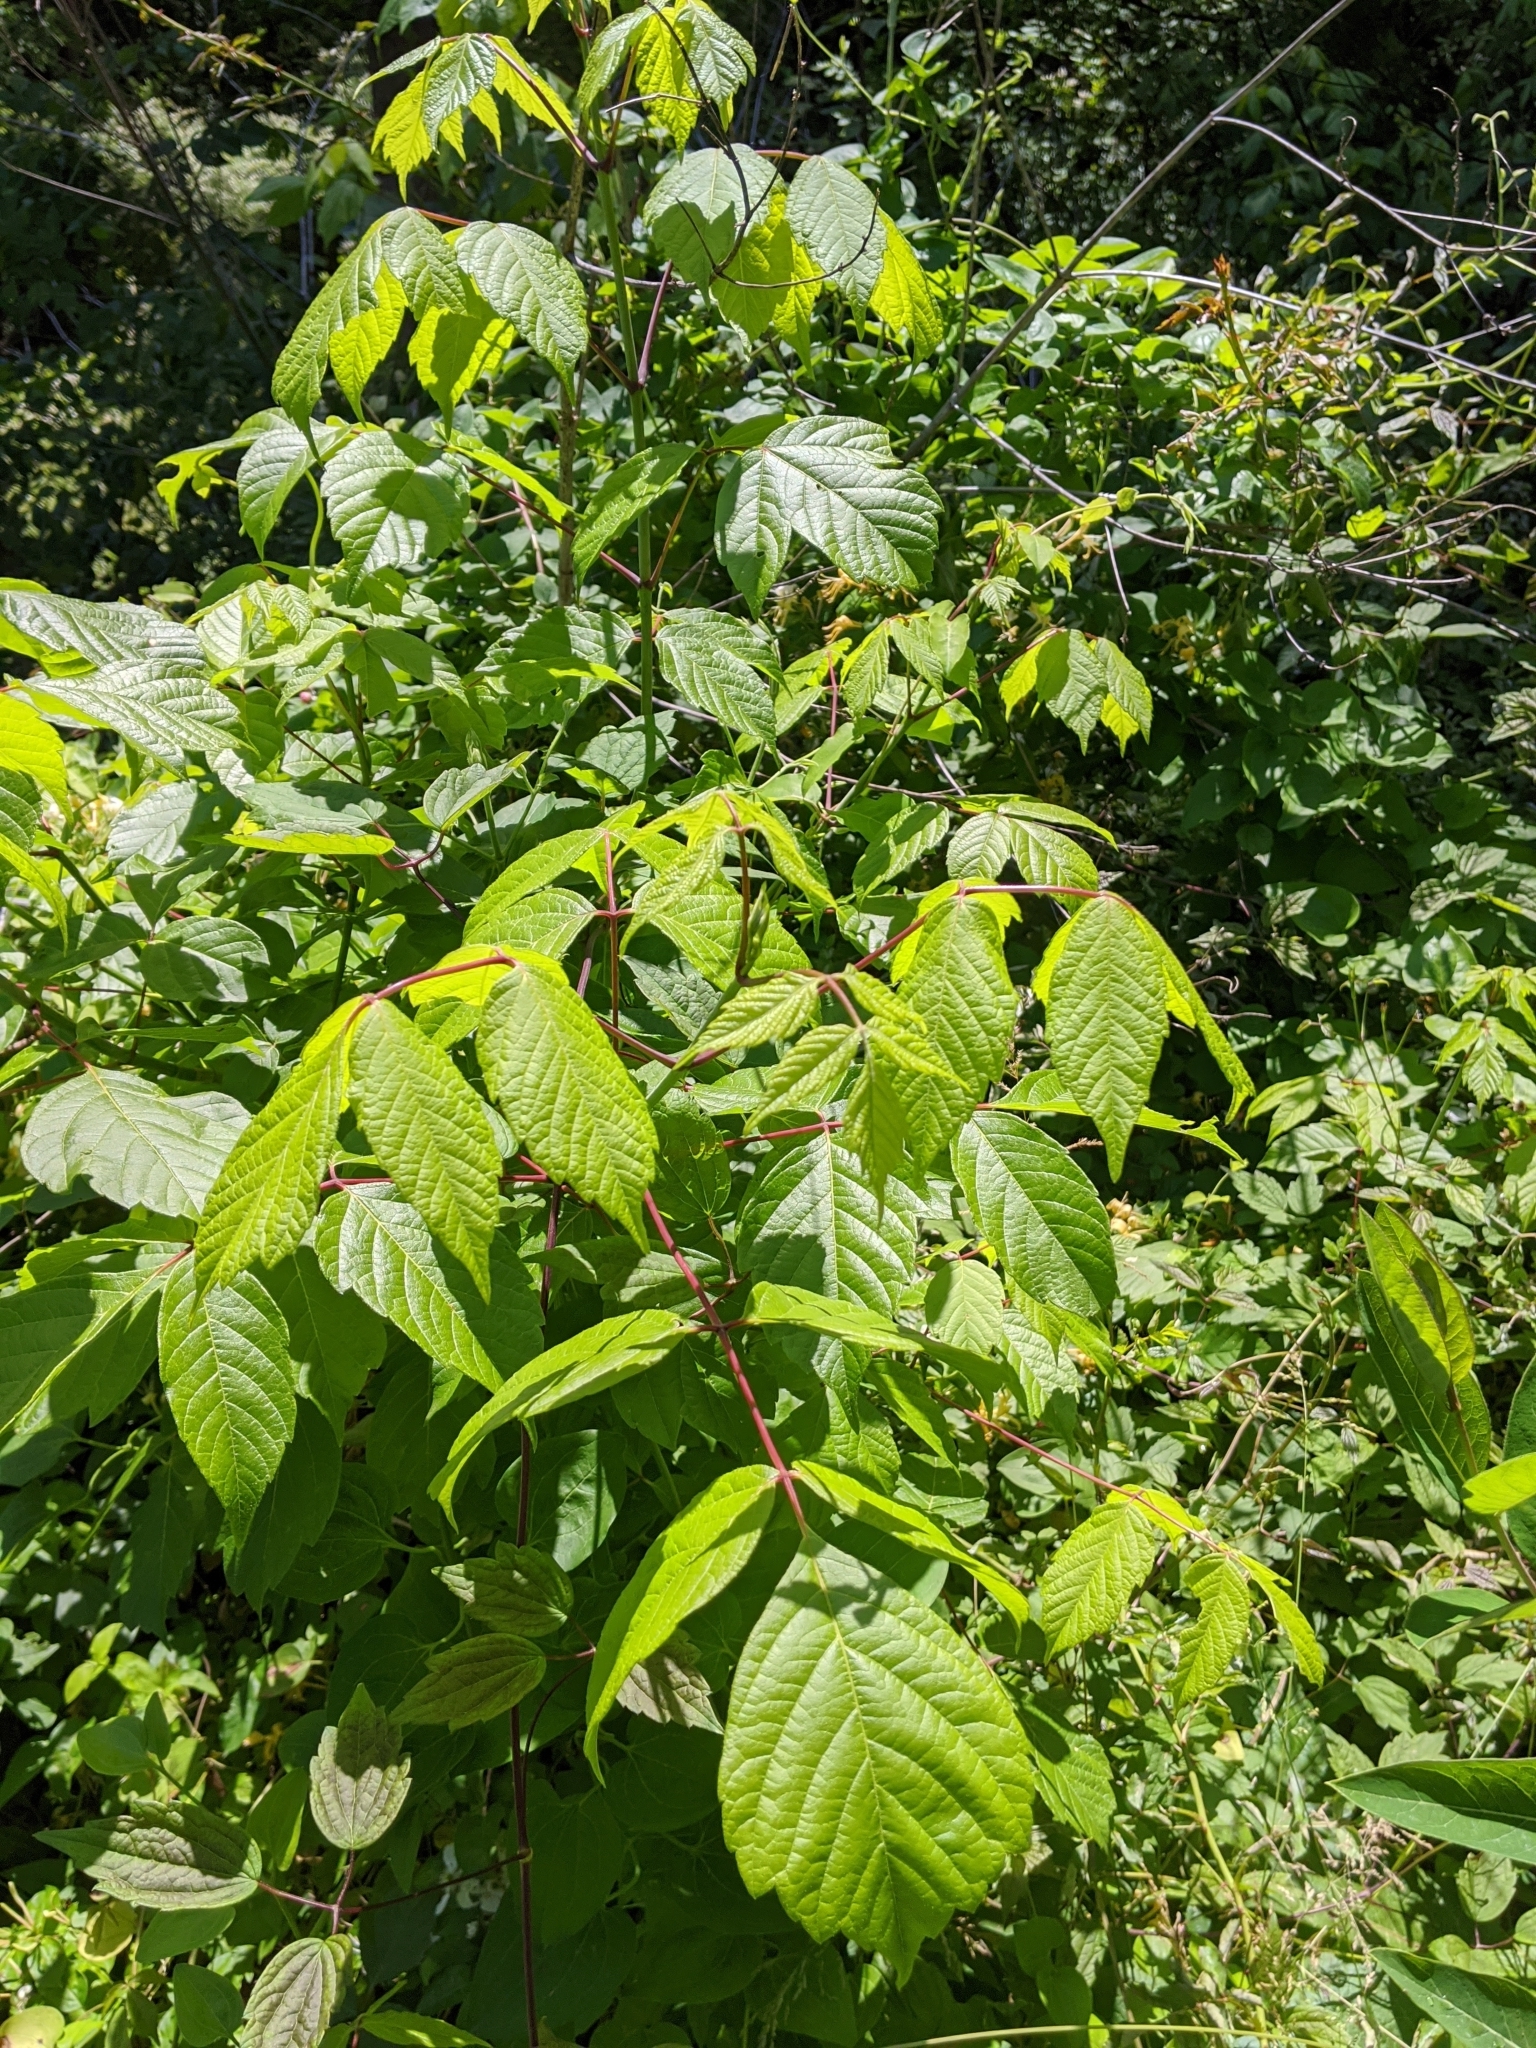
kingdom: Plantae
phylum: Tracheophyta
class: Magnoliopsida
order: Sapindales
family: Sapindaceae
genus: Acer
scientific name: Acer negundo
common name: Ashleaf maple
